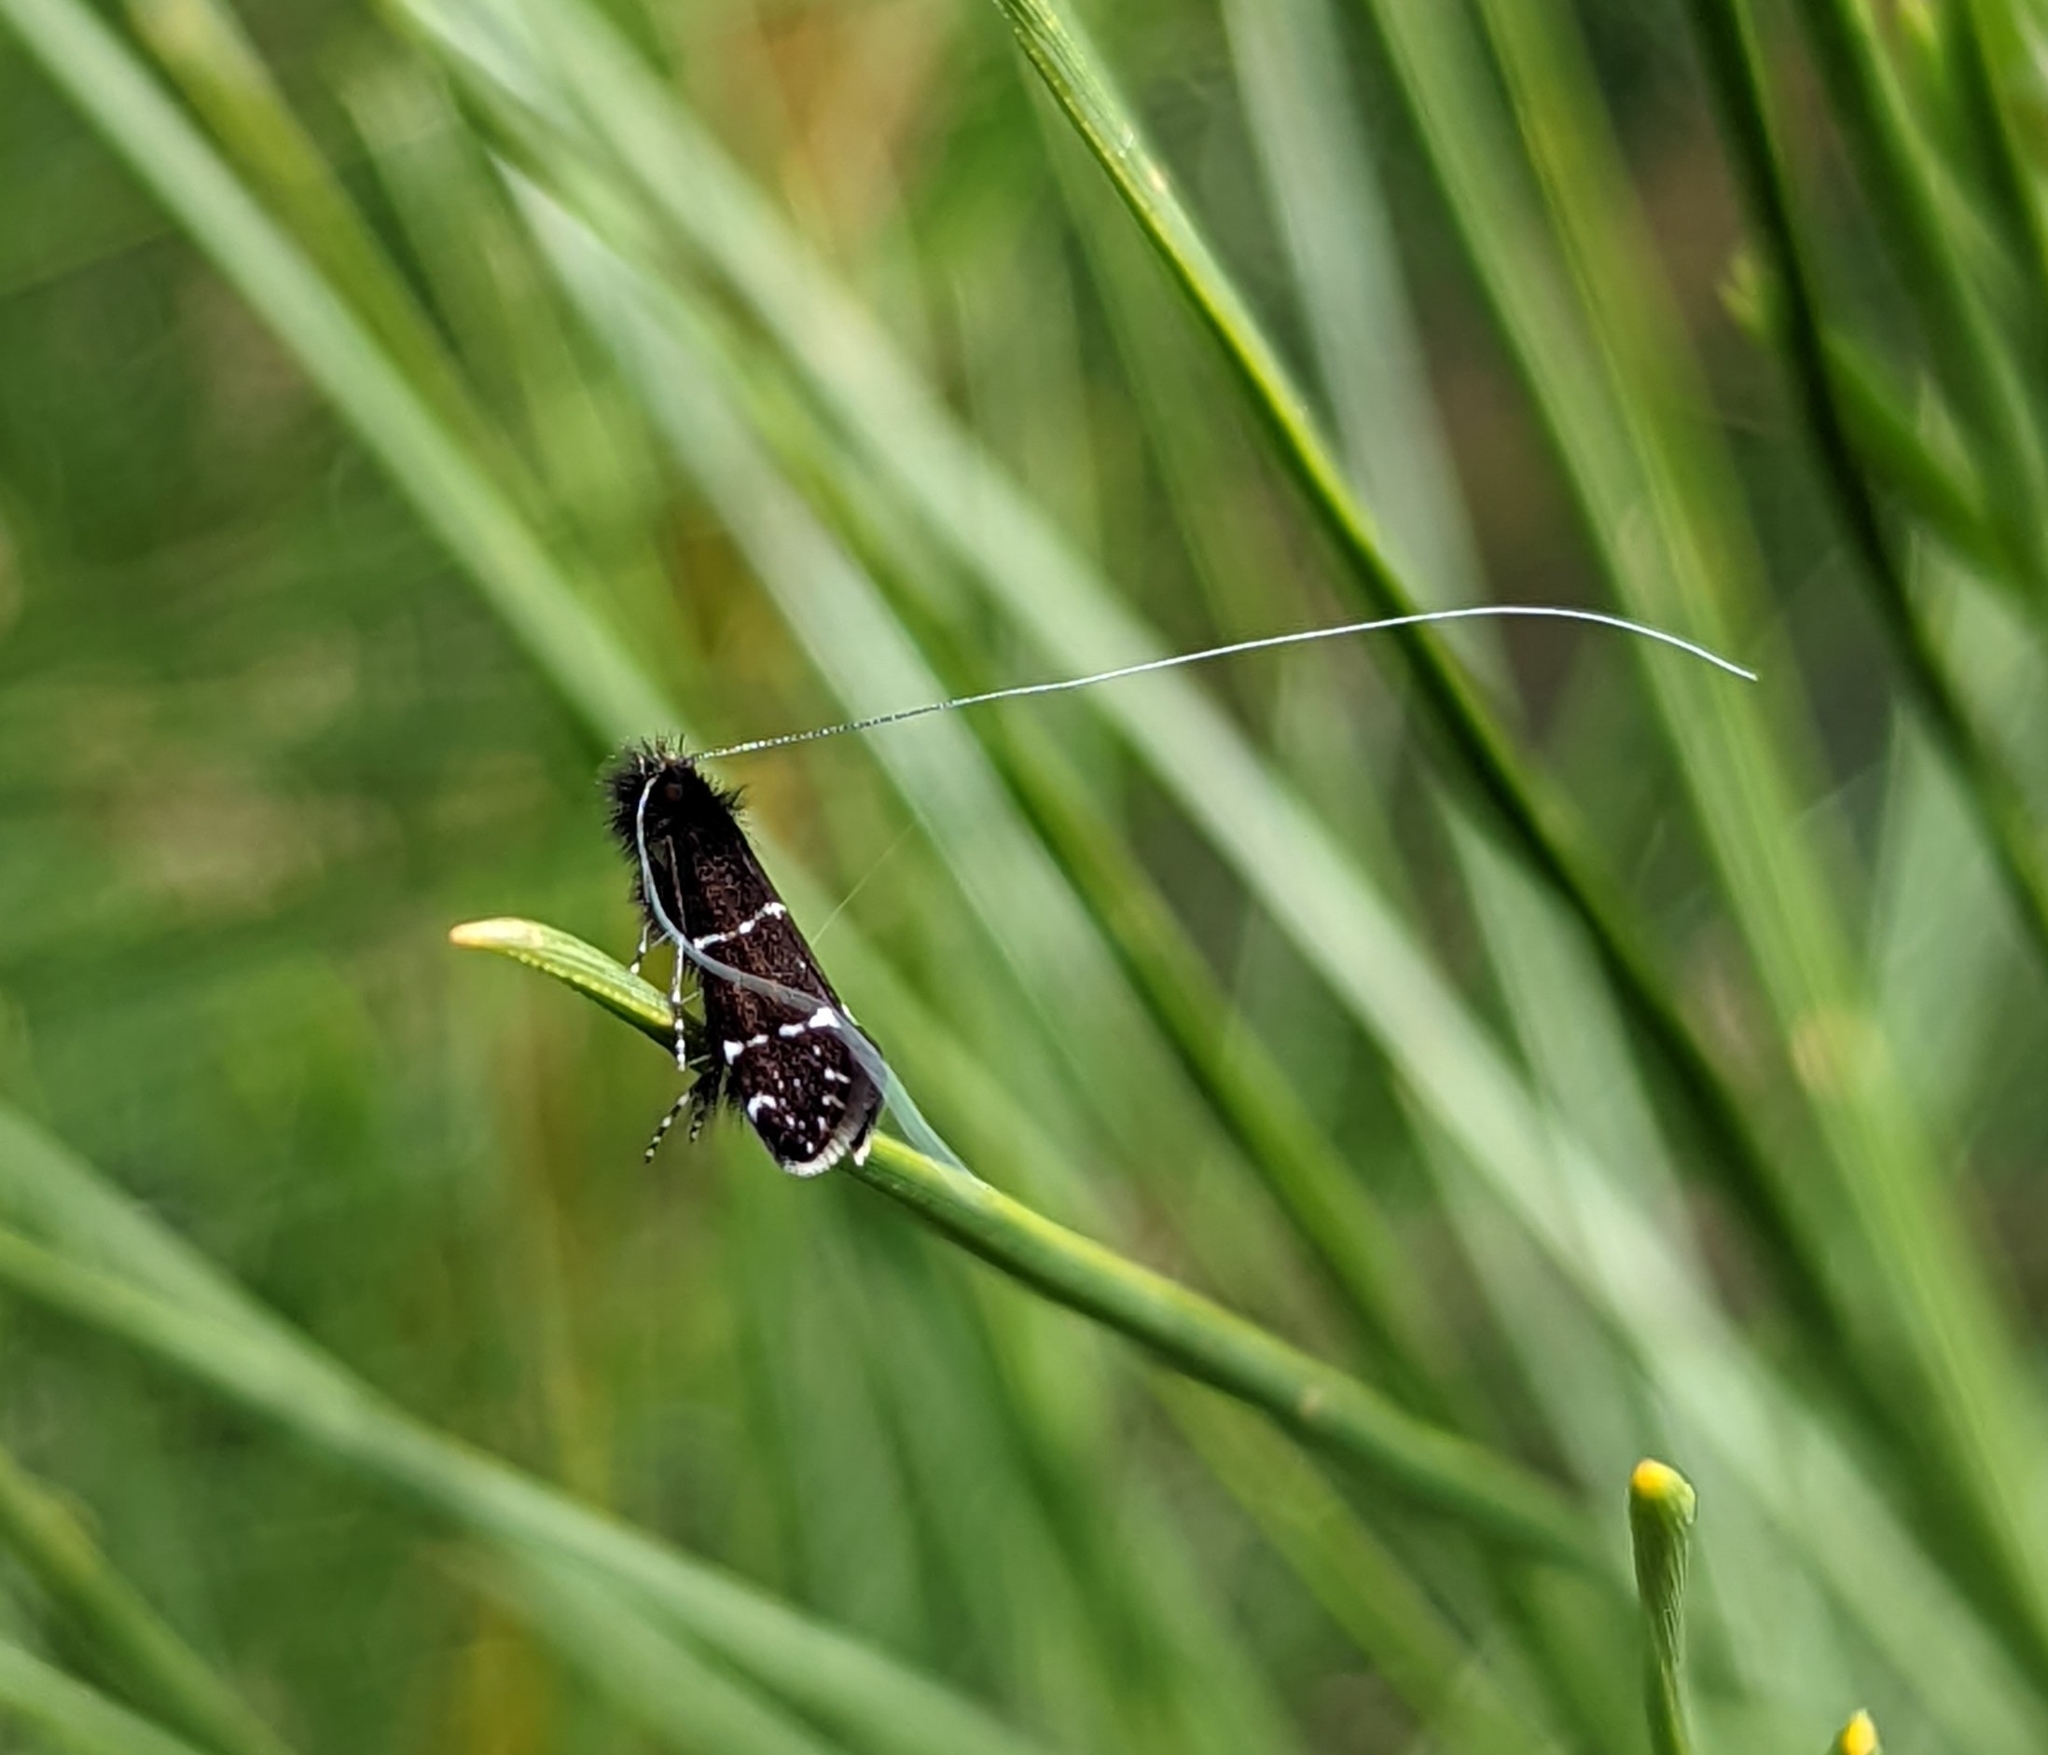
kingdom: Animalia
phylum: Arthropoda
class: Insecta
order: Lepidoptera
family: Adelidae
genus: Adela
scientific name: Adela septentrionella
